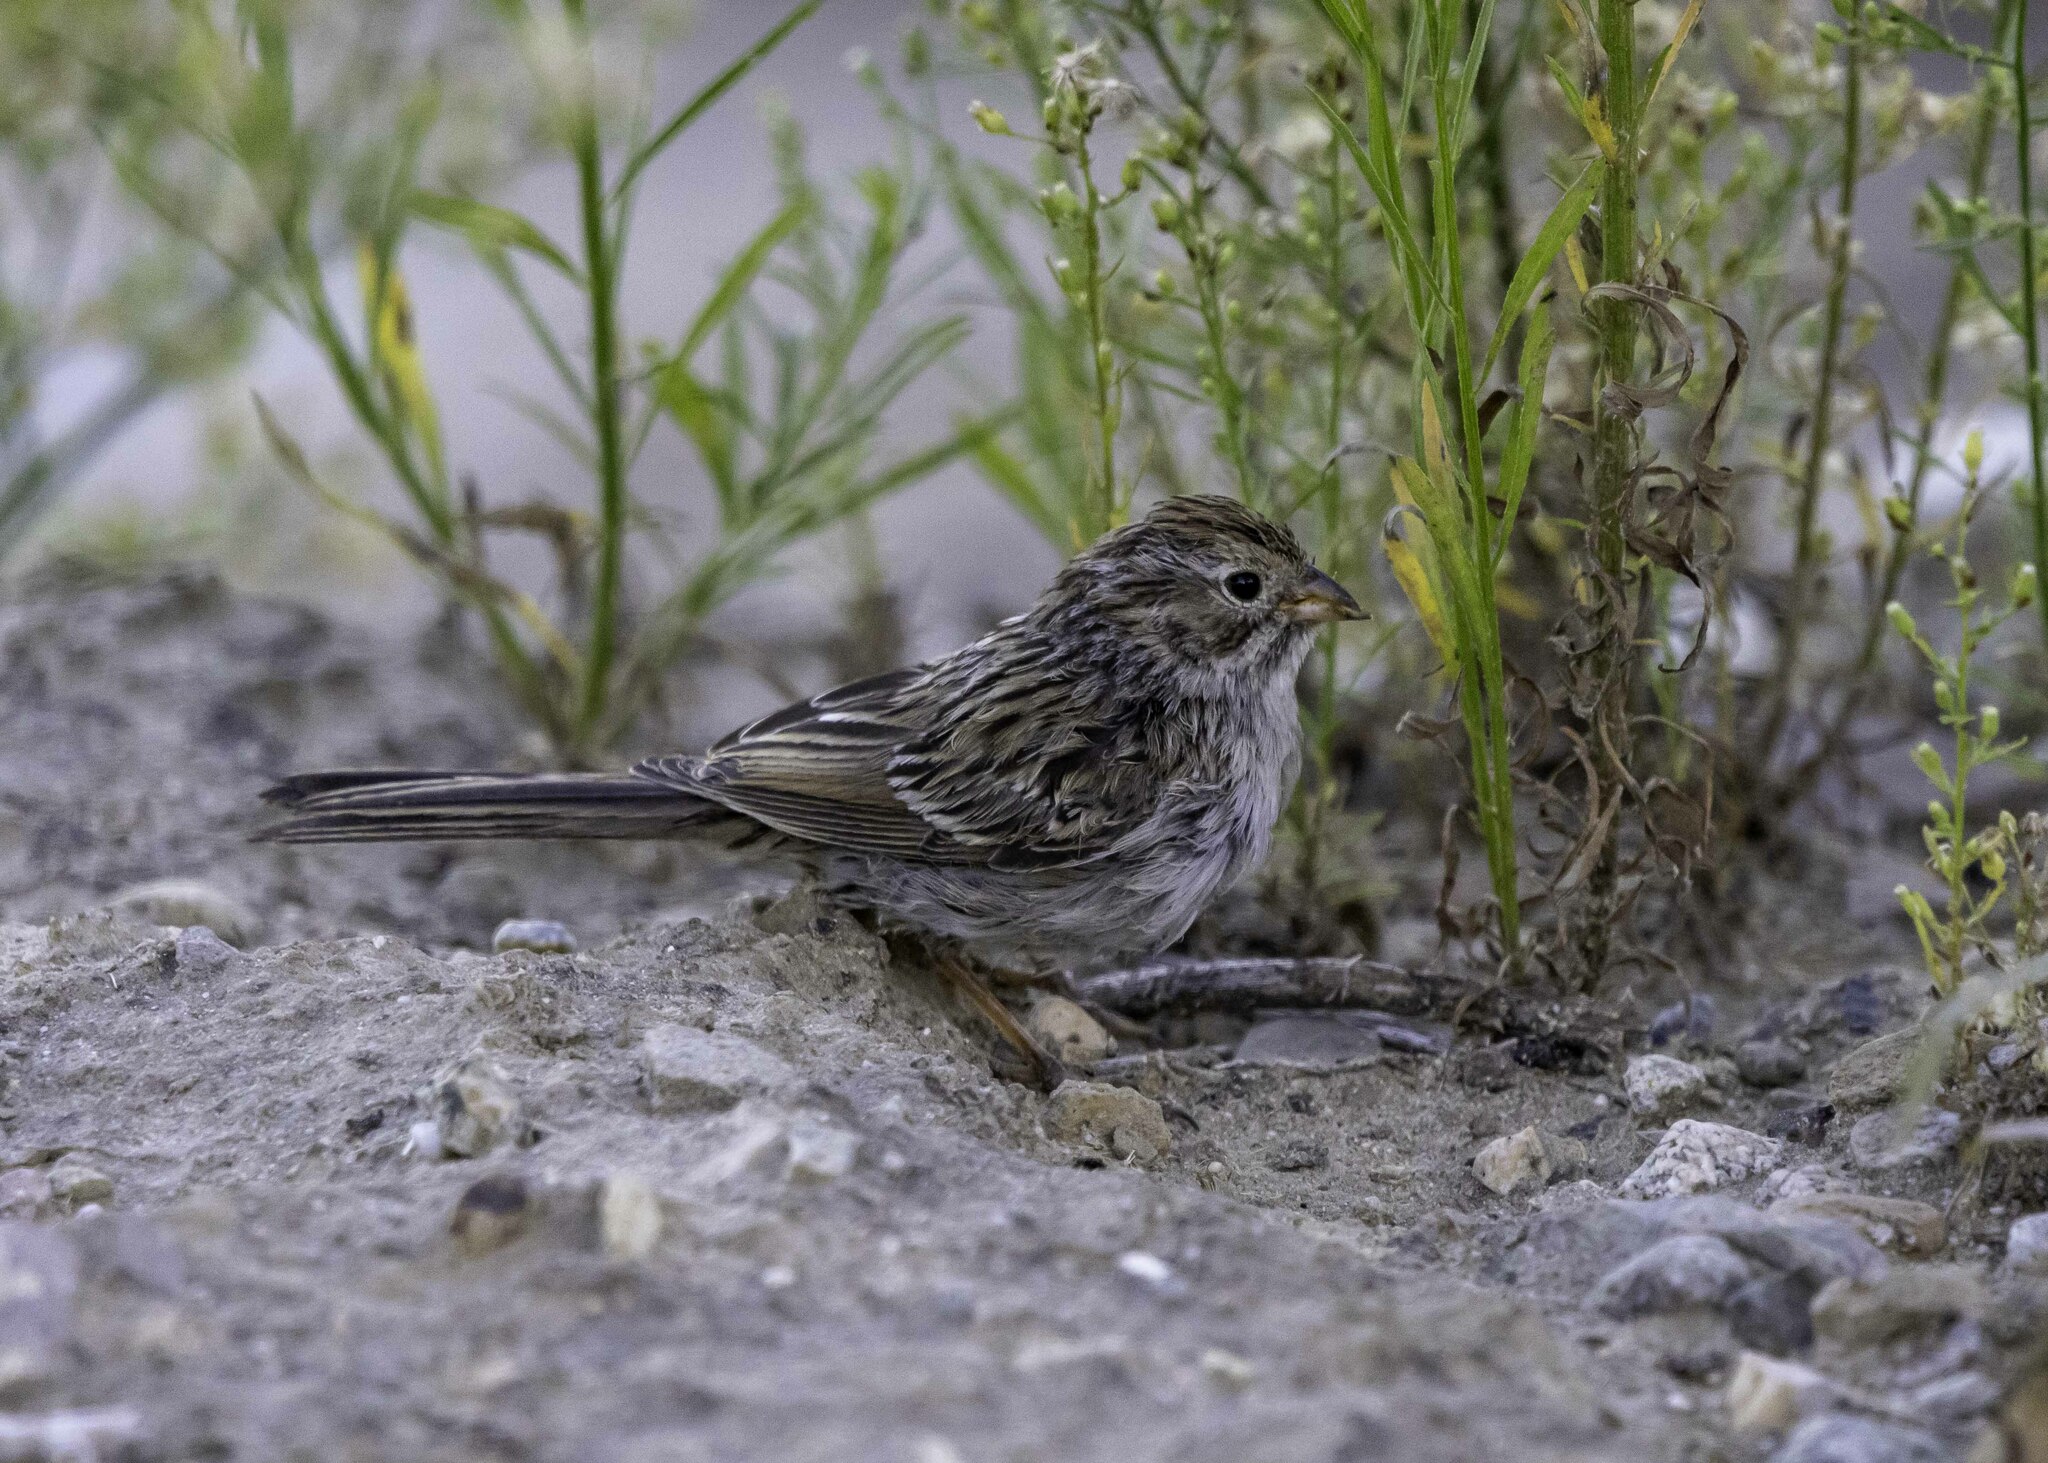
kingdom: Animalia
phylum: Chordata
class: Aves
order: Passeriformes
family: Passerellidae
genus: Spizella
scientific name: Spizella breweri
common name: Brewer's sparrow
